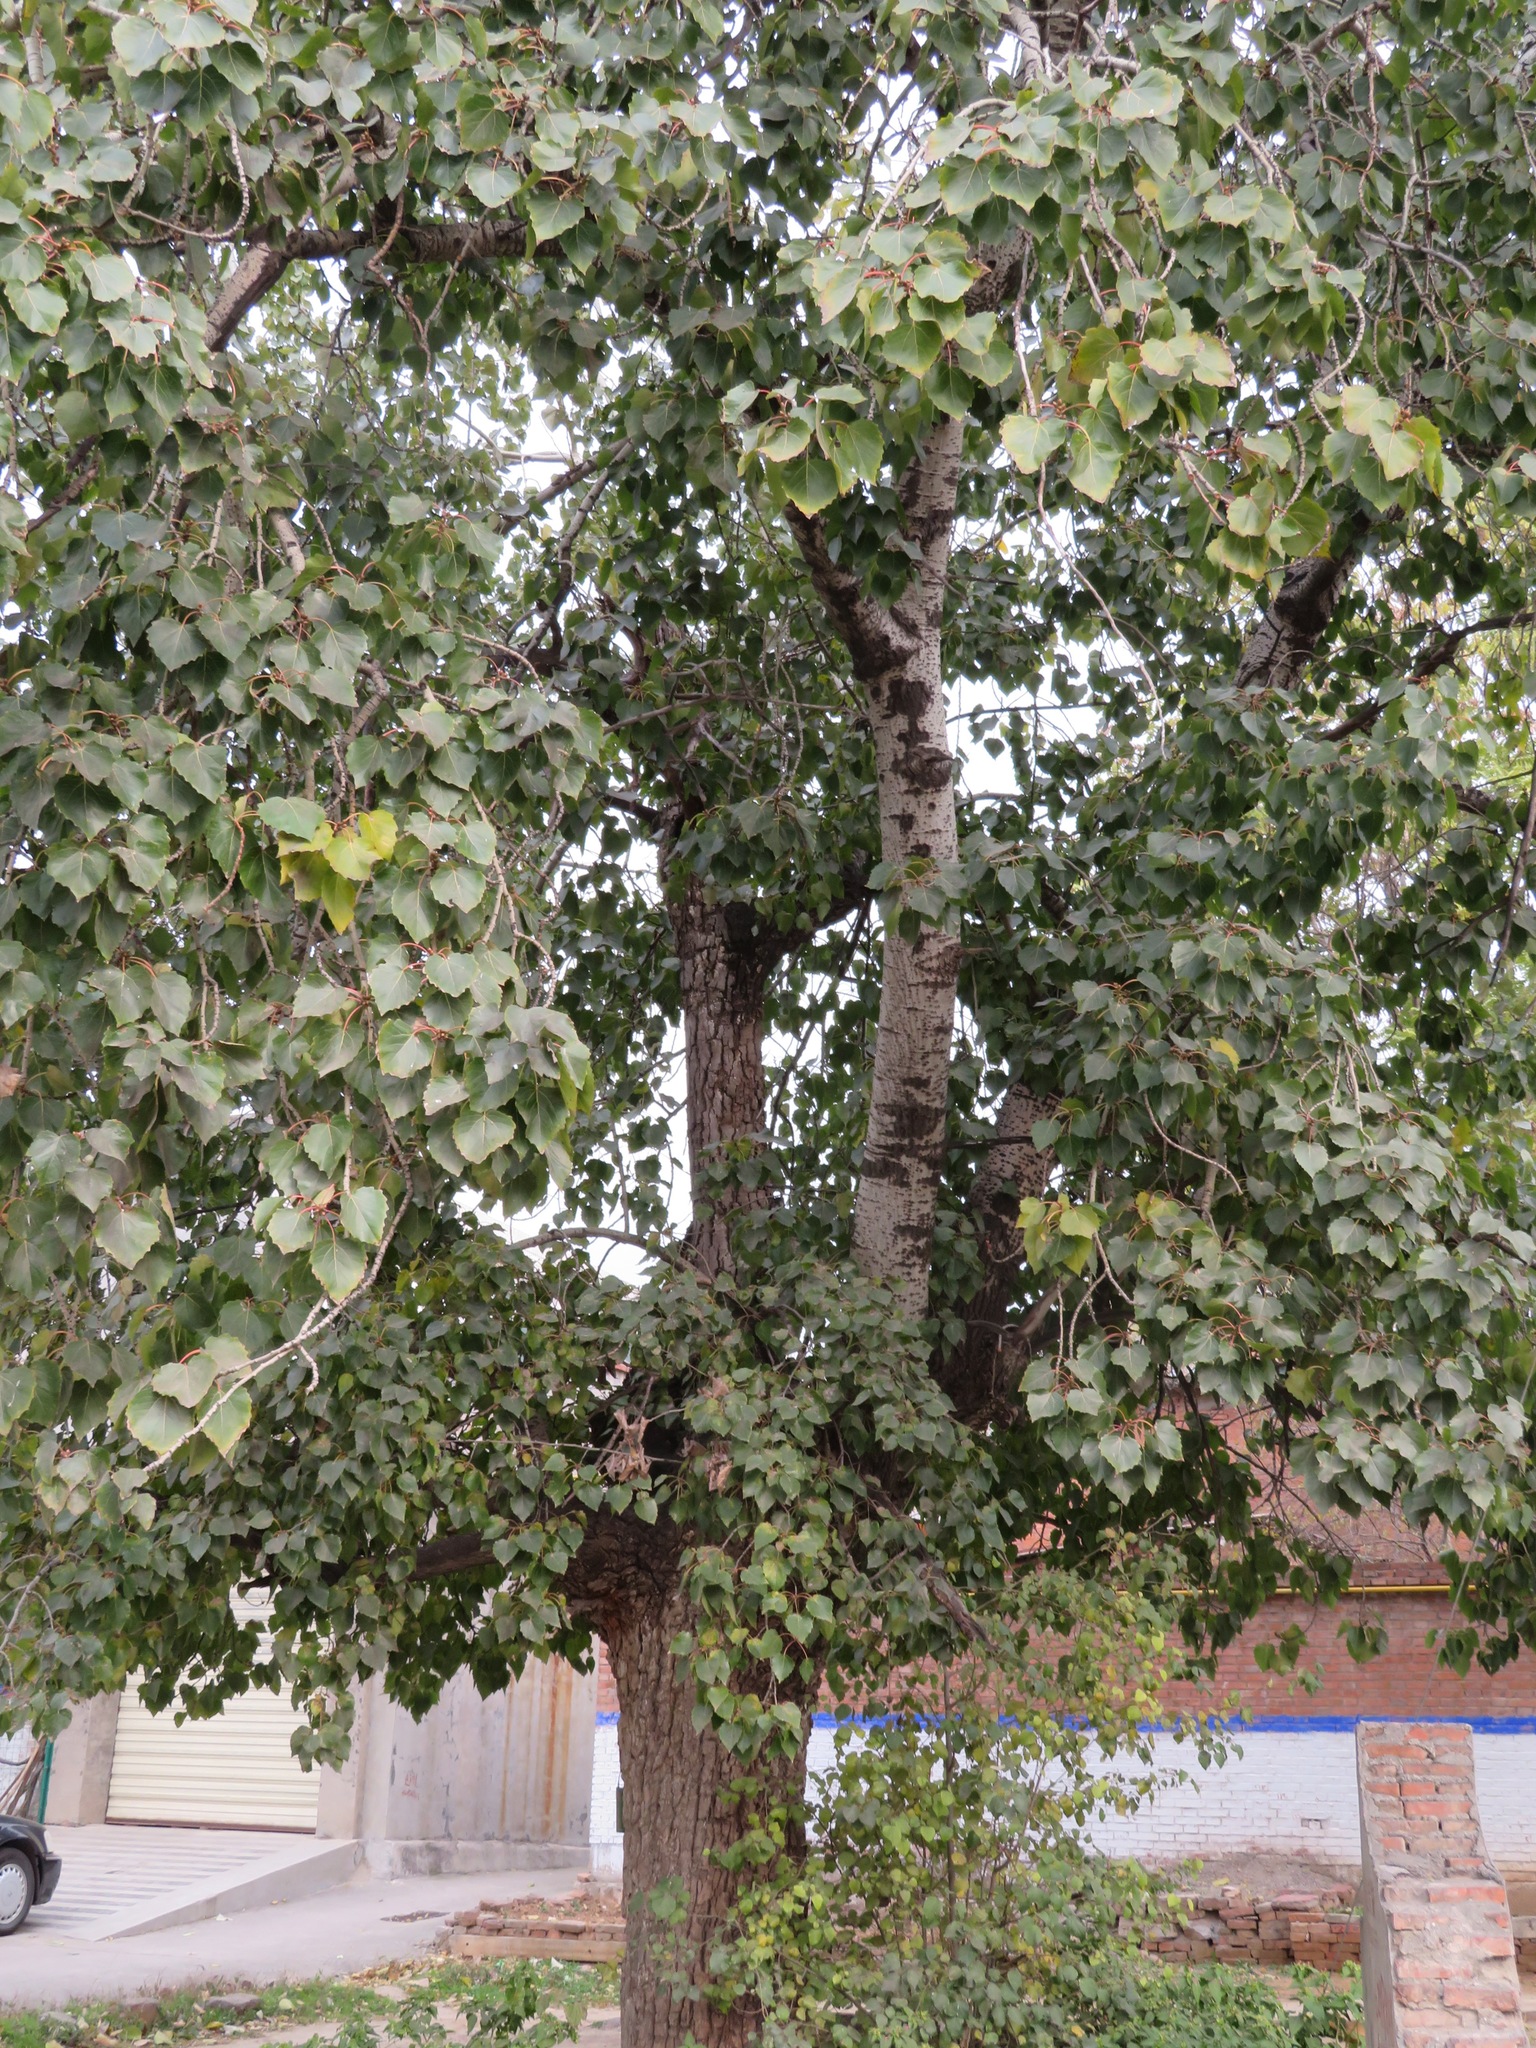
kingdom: Plantae
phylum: Tracheophyta
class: Magnoliopsida
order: Malpighiales
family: Salicaceae
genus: Populus
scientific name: Populus tomentosa
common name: Chinese white poplar
